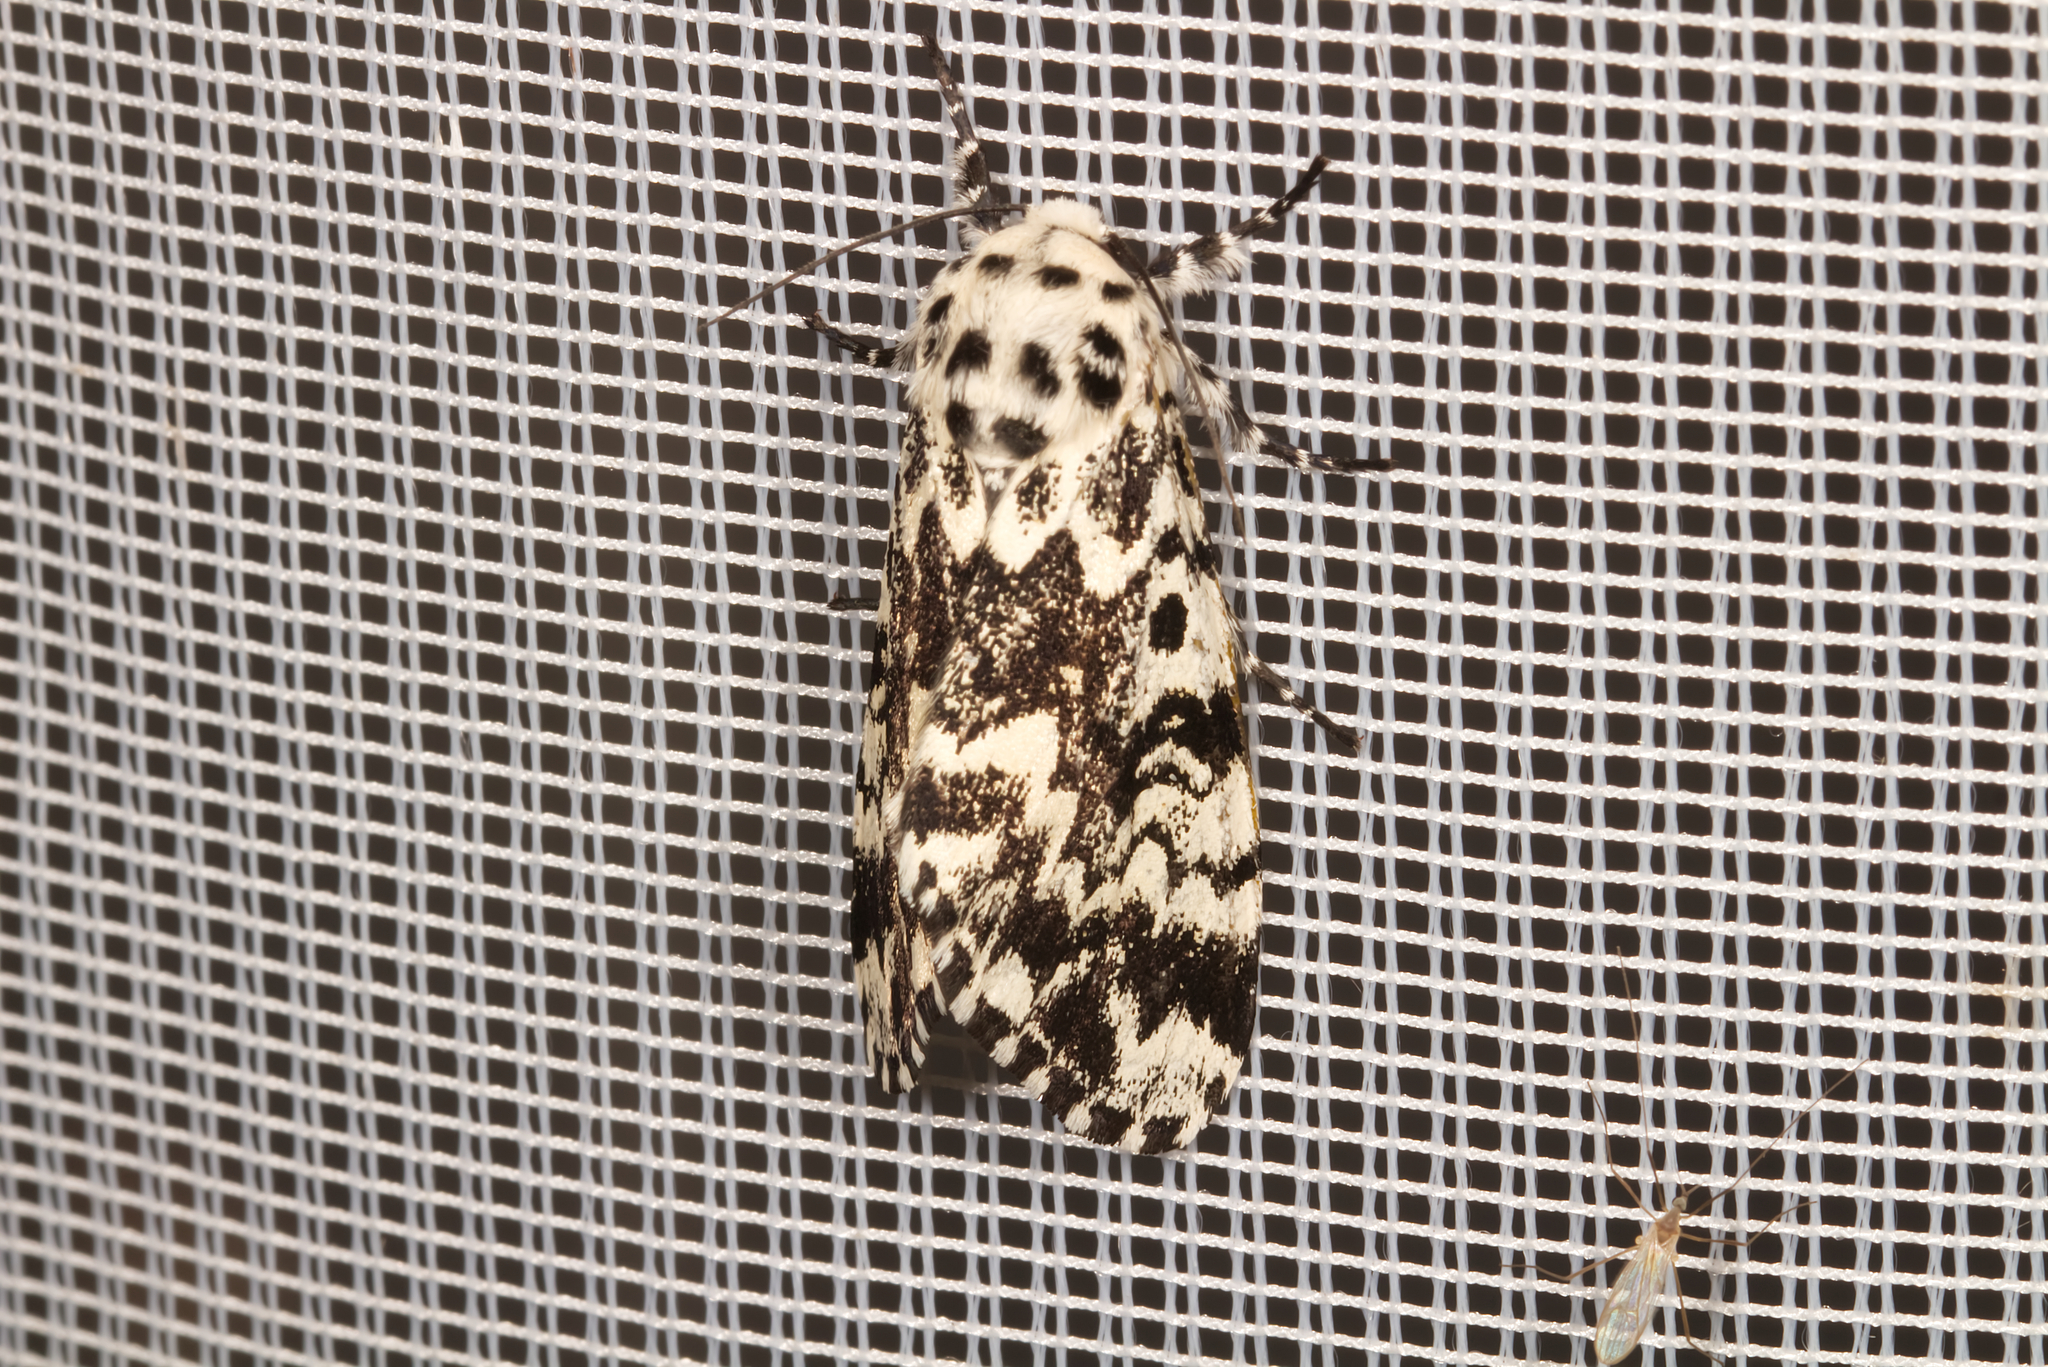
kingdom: Animalia
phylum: Arthropoda
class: Insecta
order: Lepidoptera
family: Noctuidae
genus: Panthea
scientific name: Panthea coenobita
